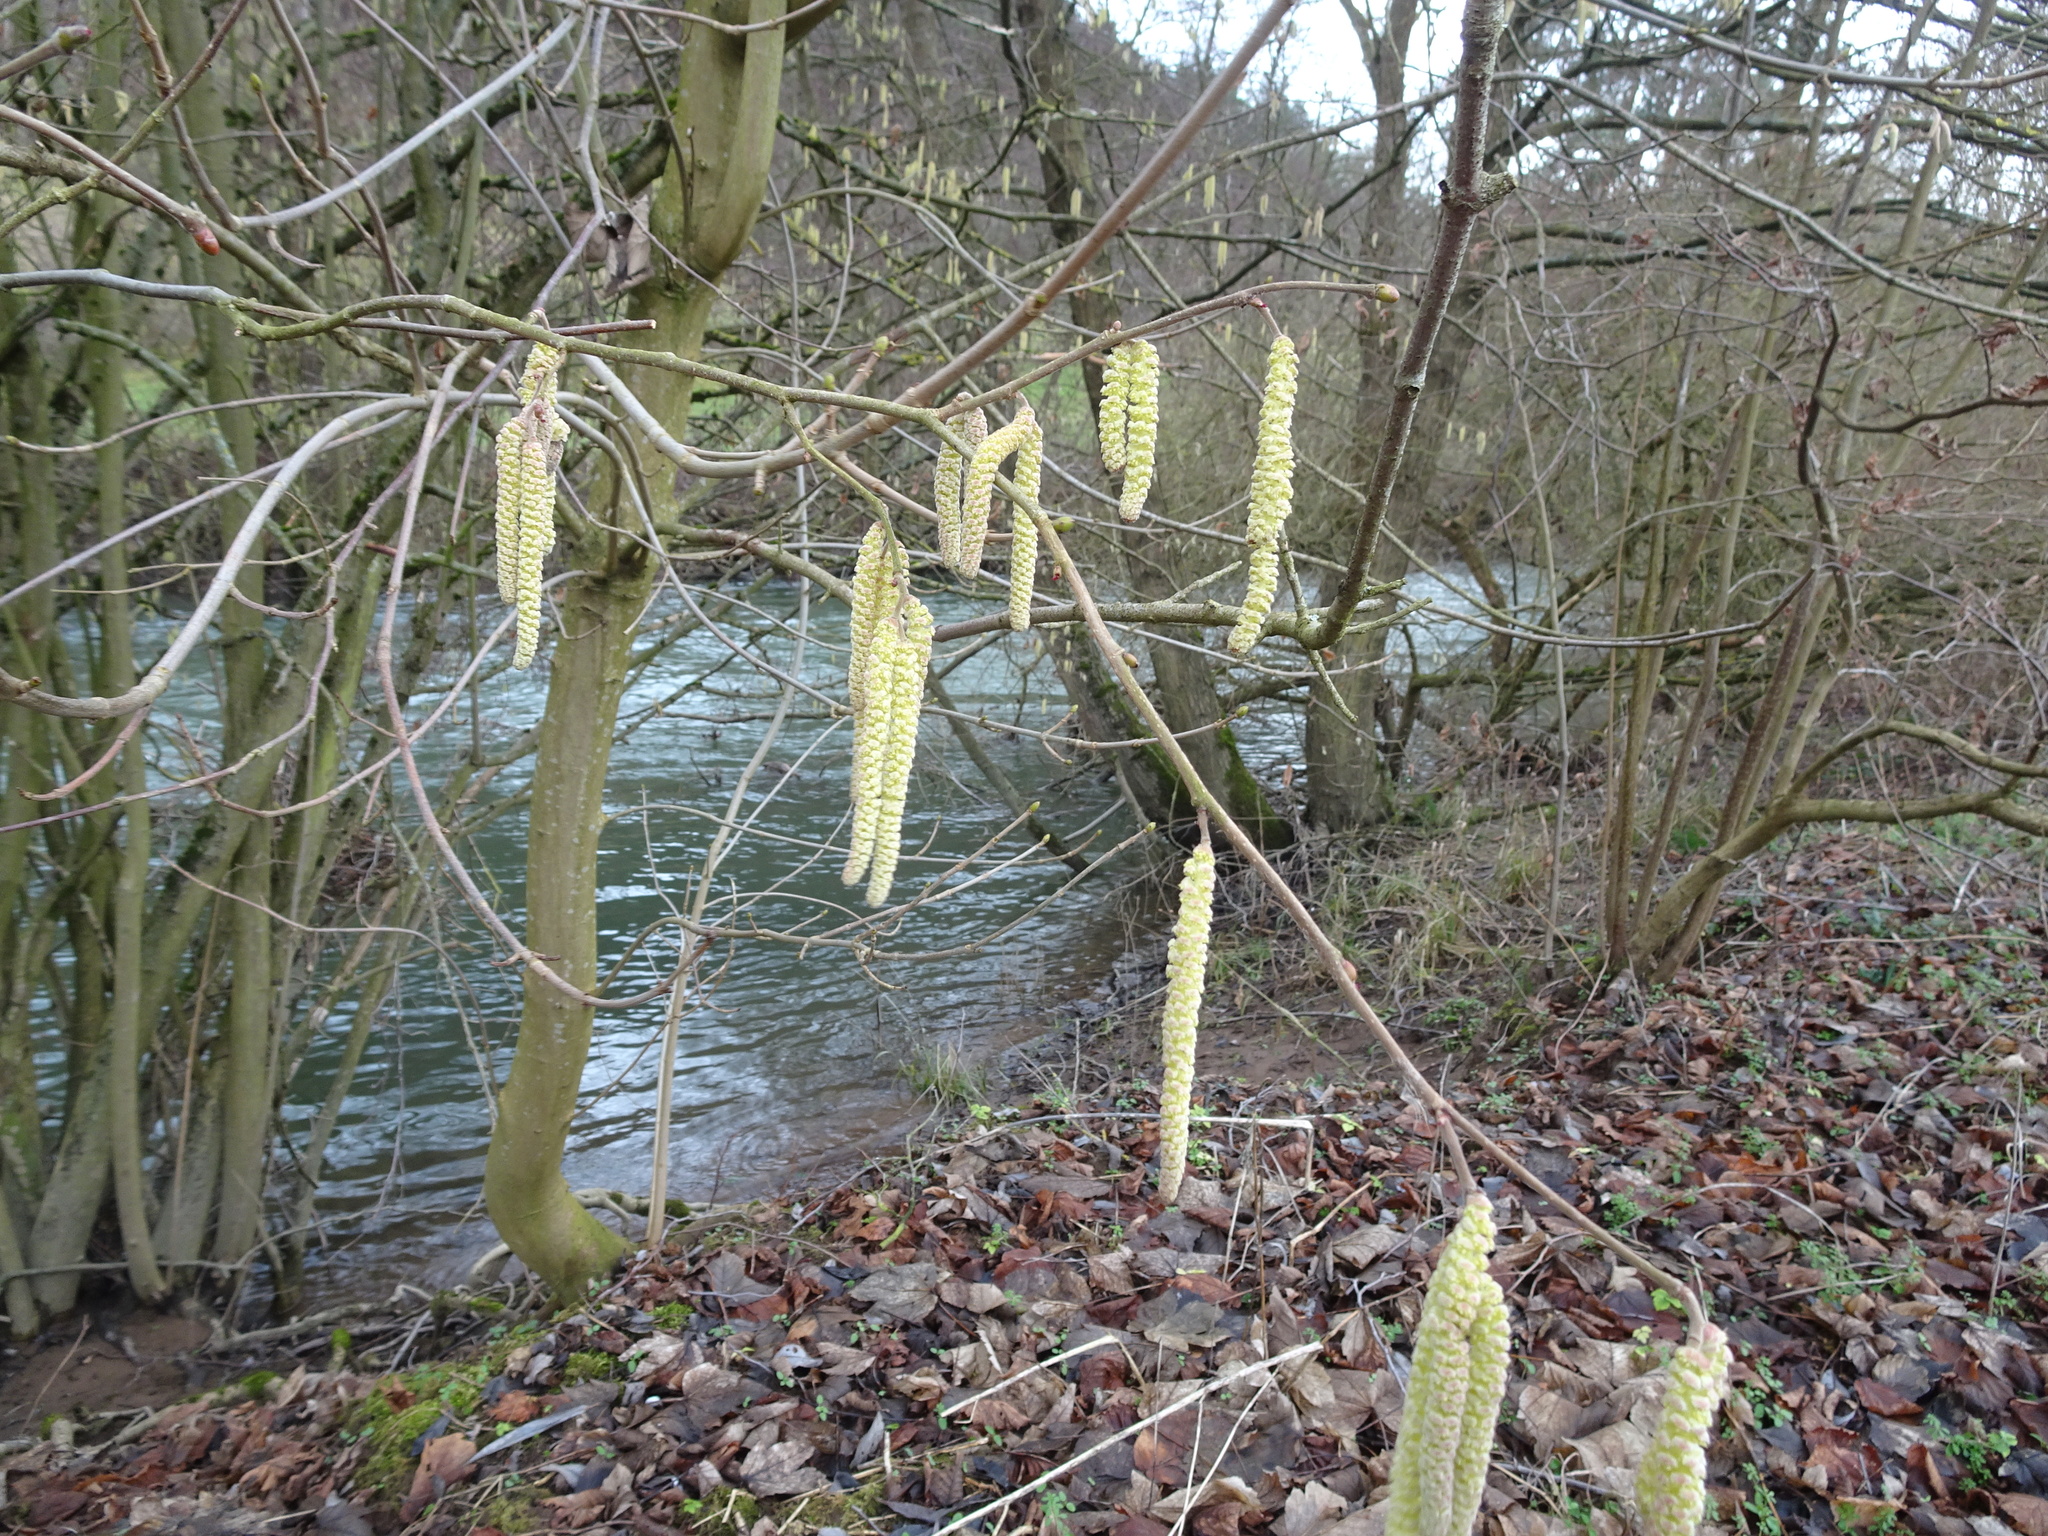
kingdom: Plantae
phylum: Tracheophyta
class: Magnoliopsida
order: Fagales
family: Betulaceae
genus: Corylus
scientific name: Corylus avellana
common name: European hazel
